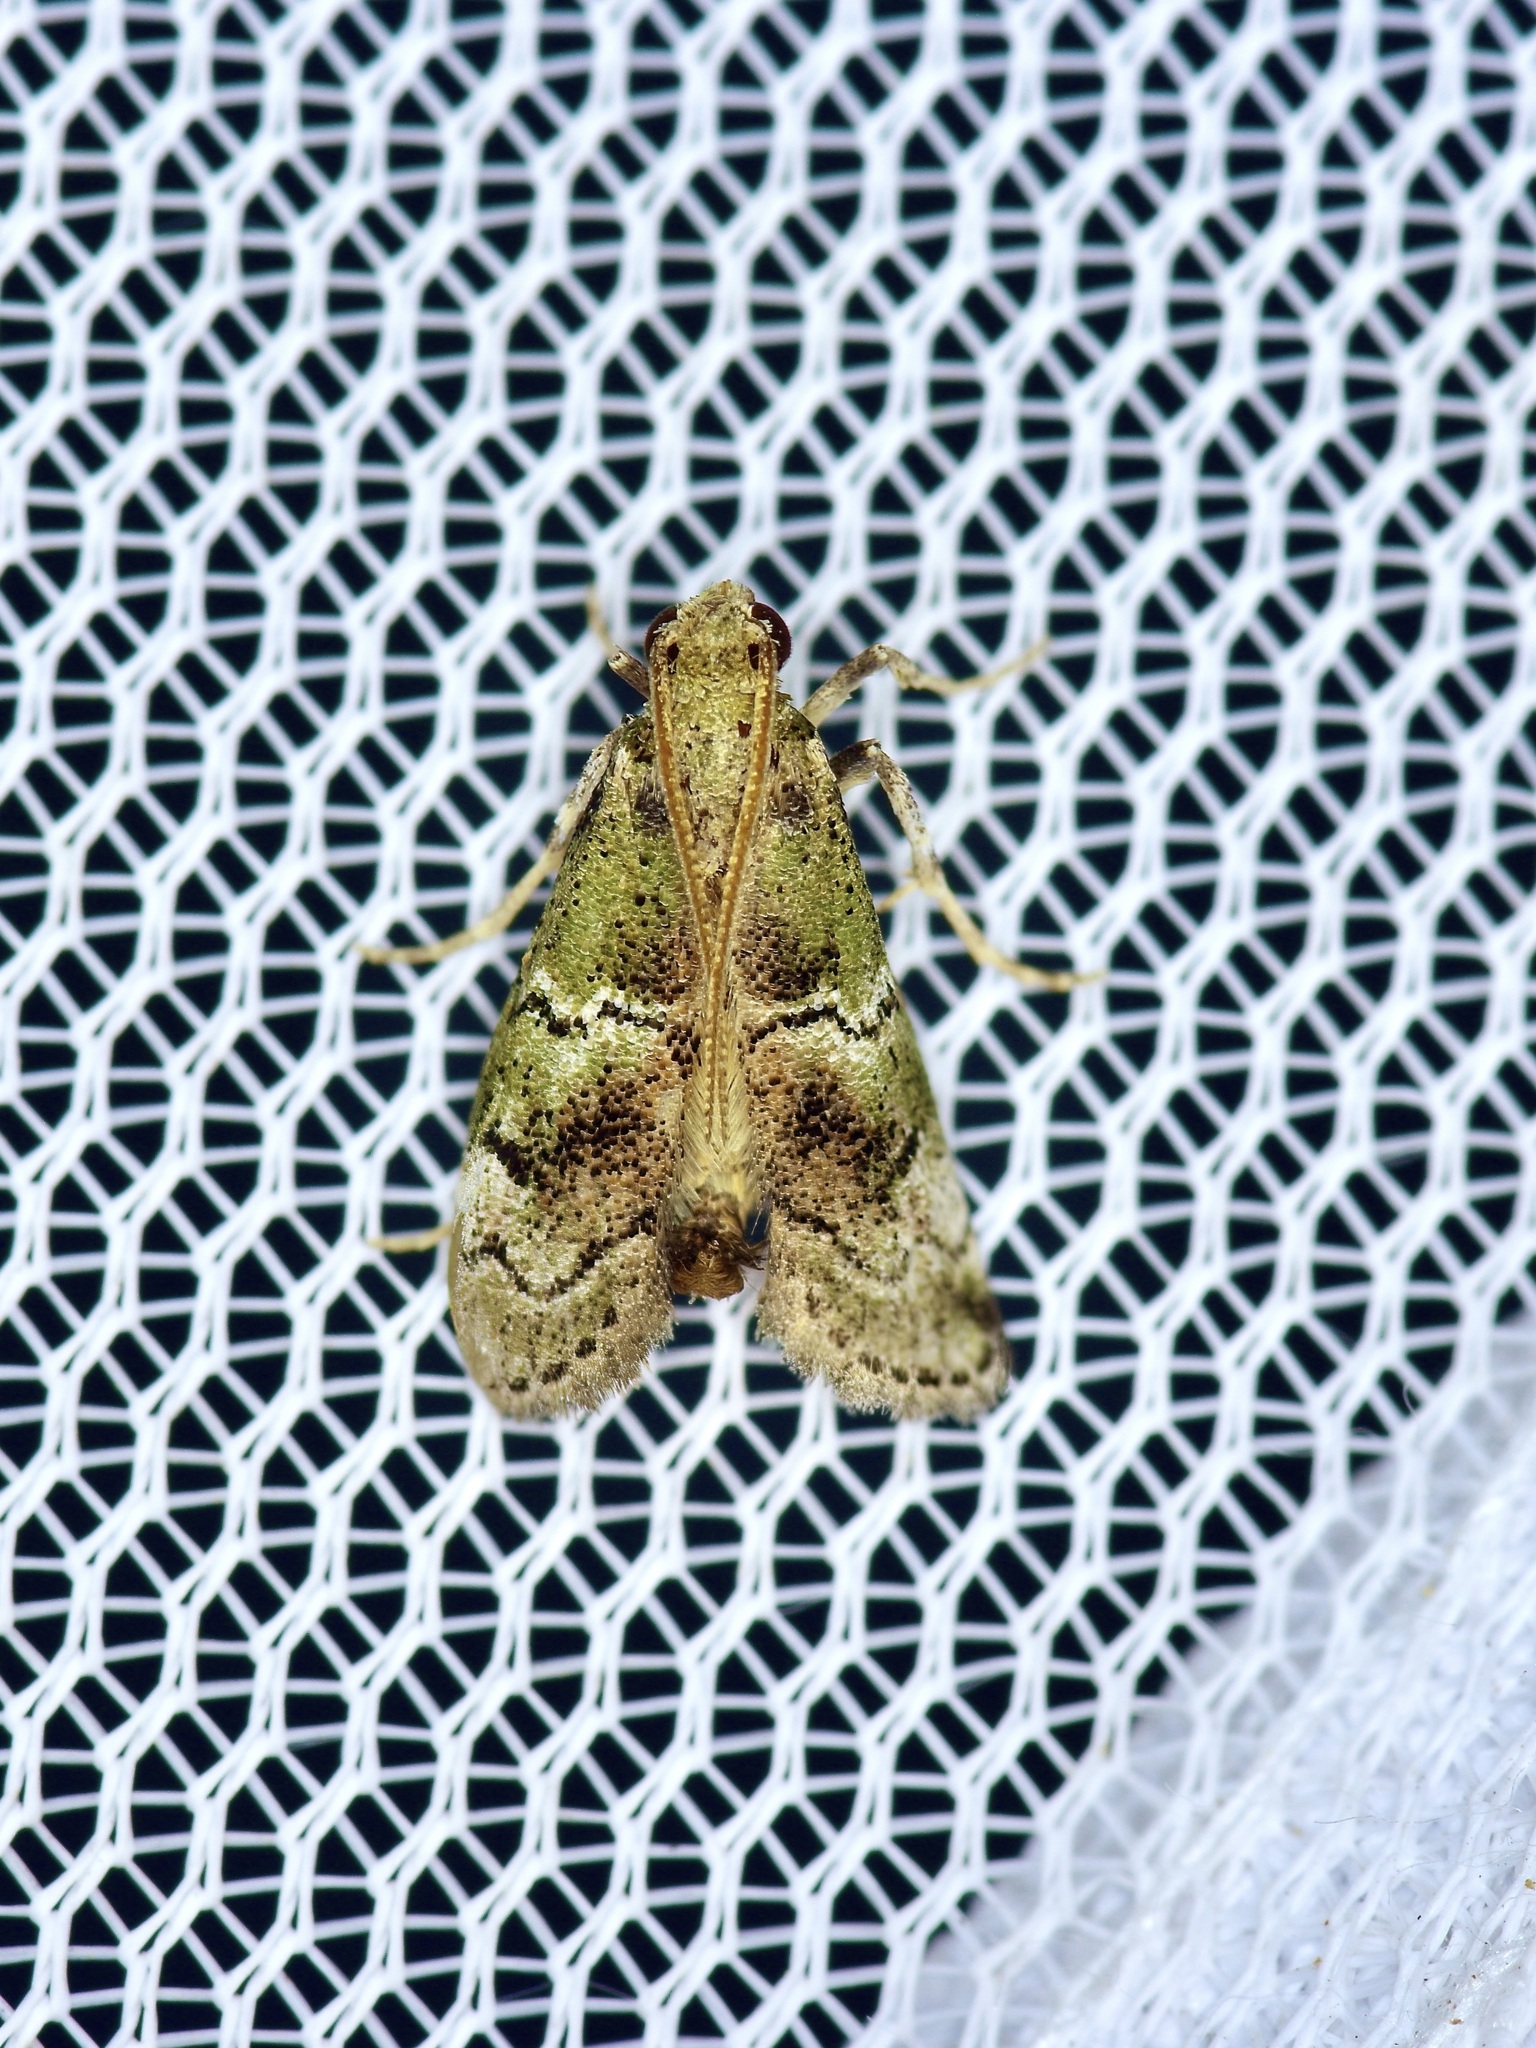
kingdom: Animalia
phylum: Arthropoda
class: Insecta
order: Lepidoptera
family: Pyralidae
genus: Cacotherapia
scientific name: Cacotherapia flexilinealis
